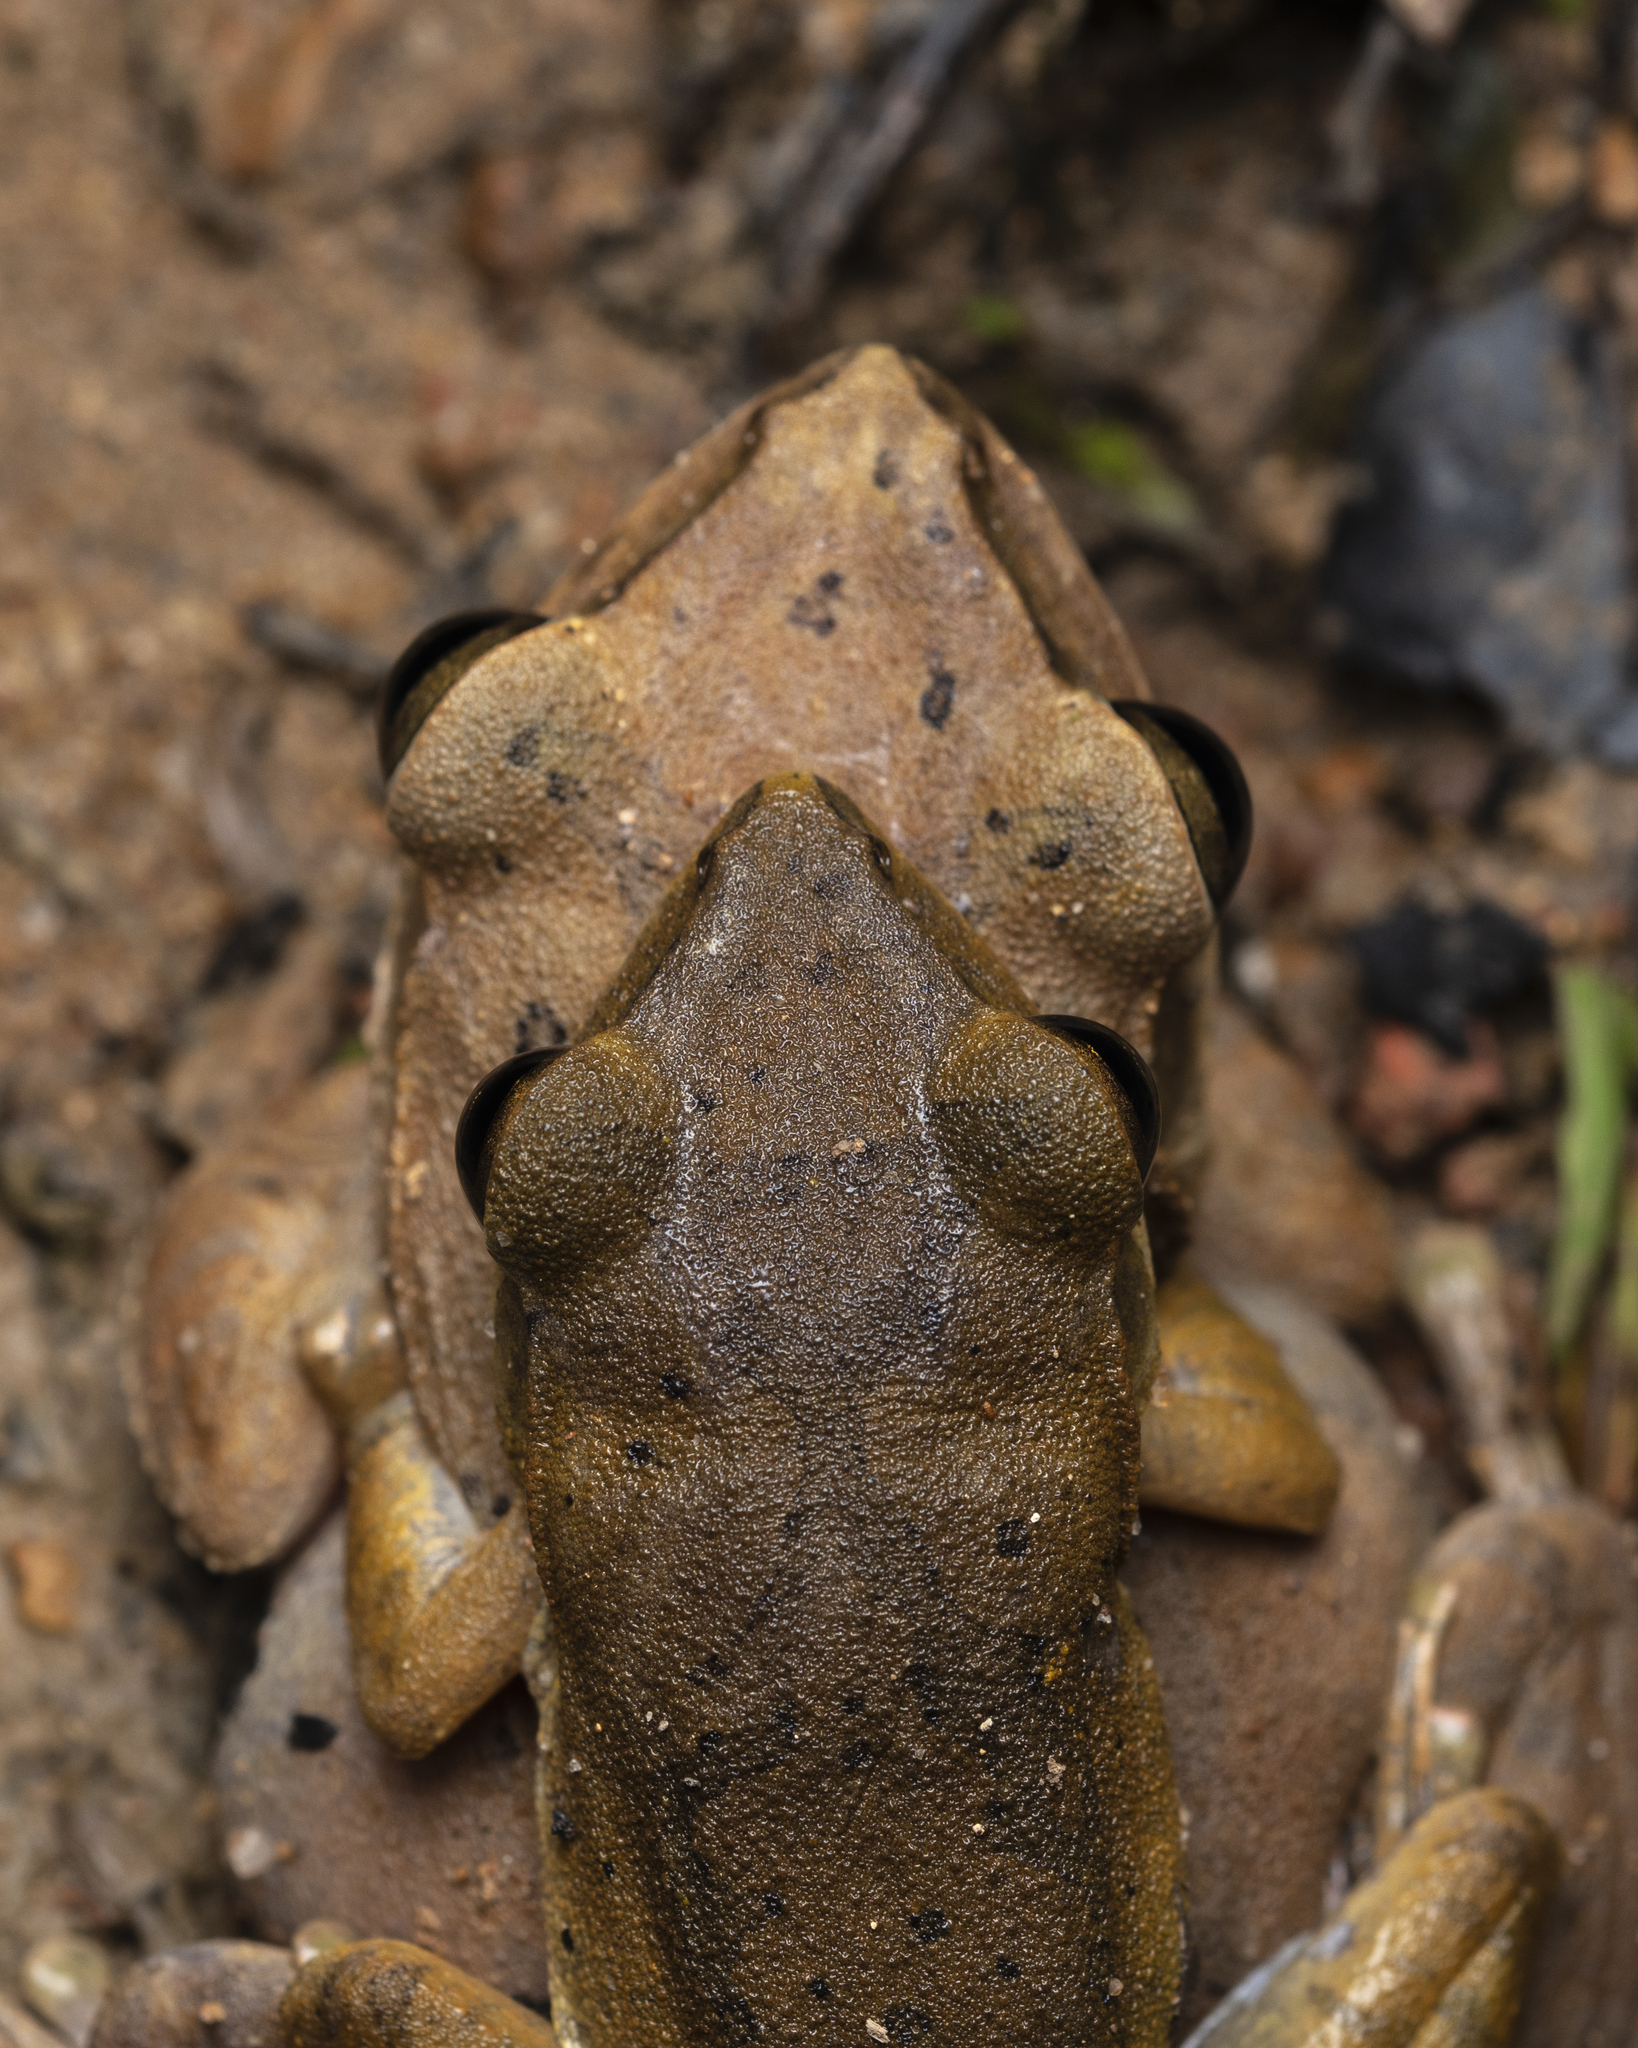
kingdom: Animalia
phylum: Chordata
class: Amphibia
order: Anura
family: Rhacophoridae
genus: Polypedates
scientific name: Polypedates megacephalus
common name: Hong kong whipping frog
